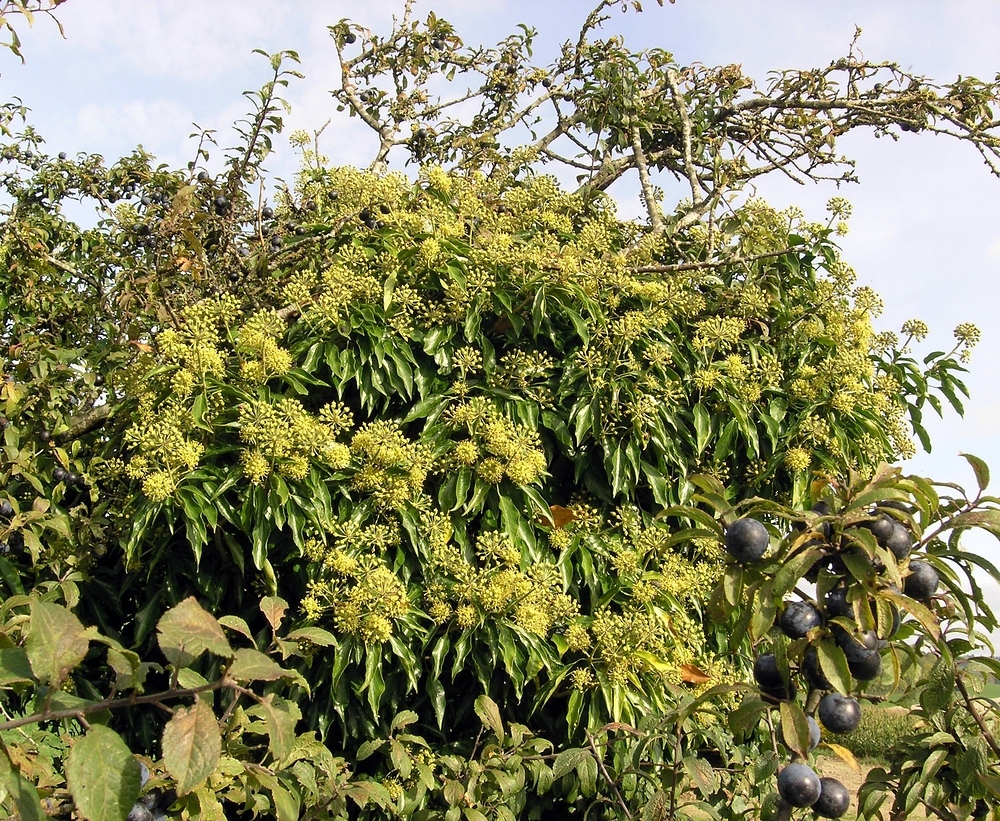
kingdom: Plantae
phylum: Tracheophyta
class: Magnoliopsida
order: Apiales
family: Araliaceae
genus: Hedera
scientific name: Hedera helix
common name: Ivy
